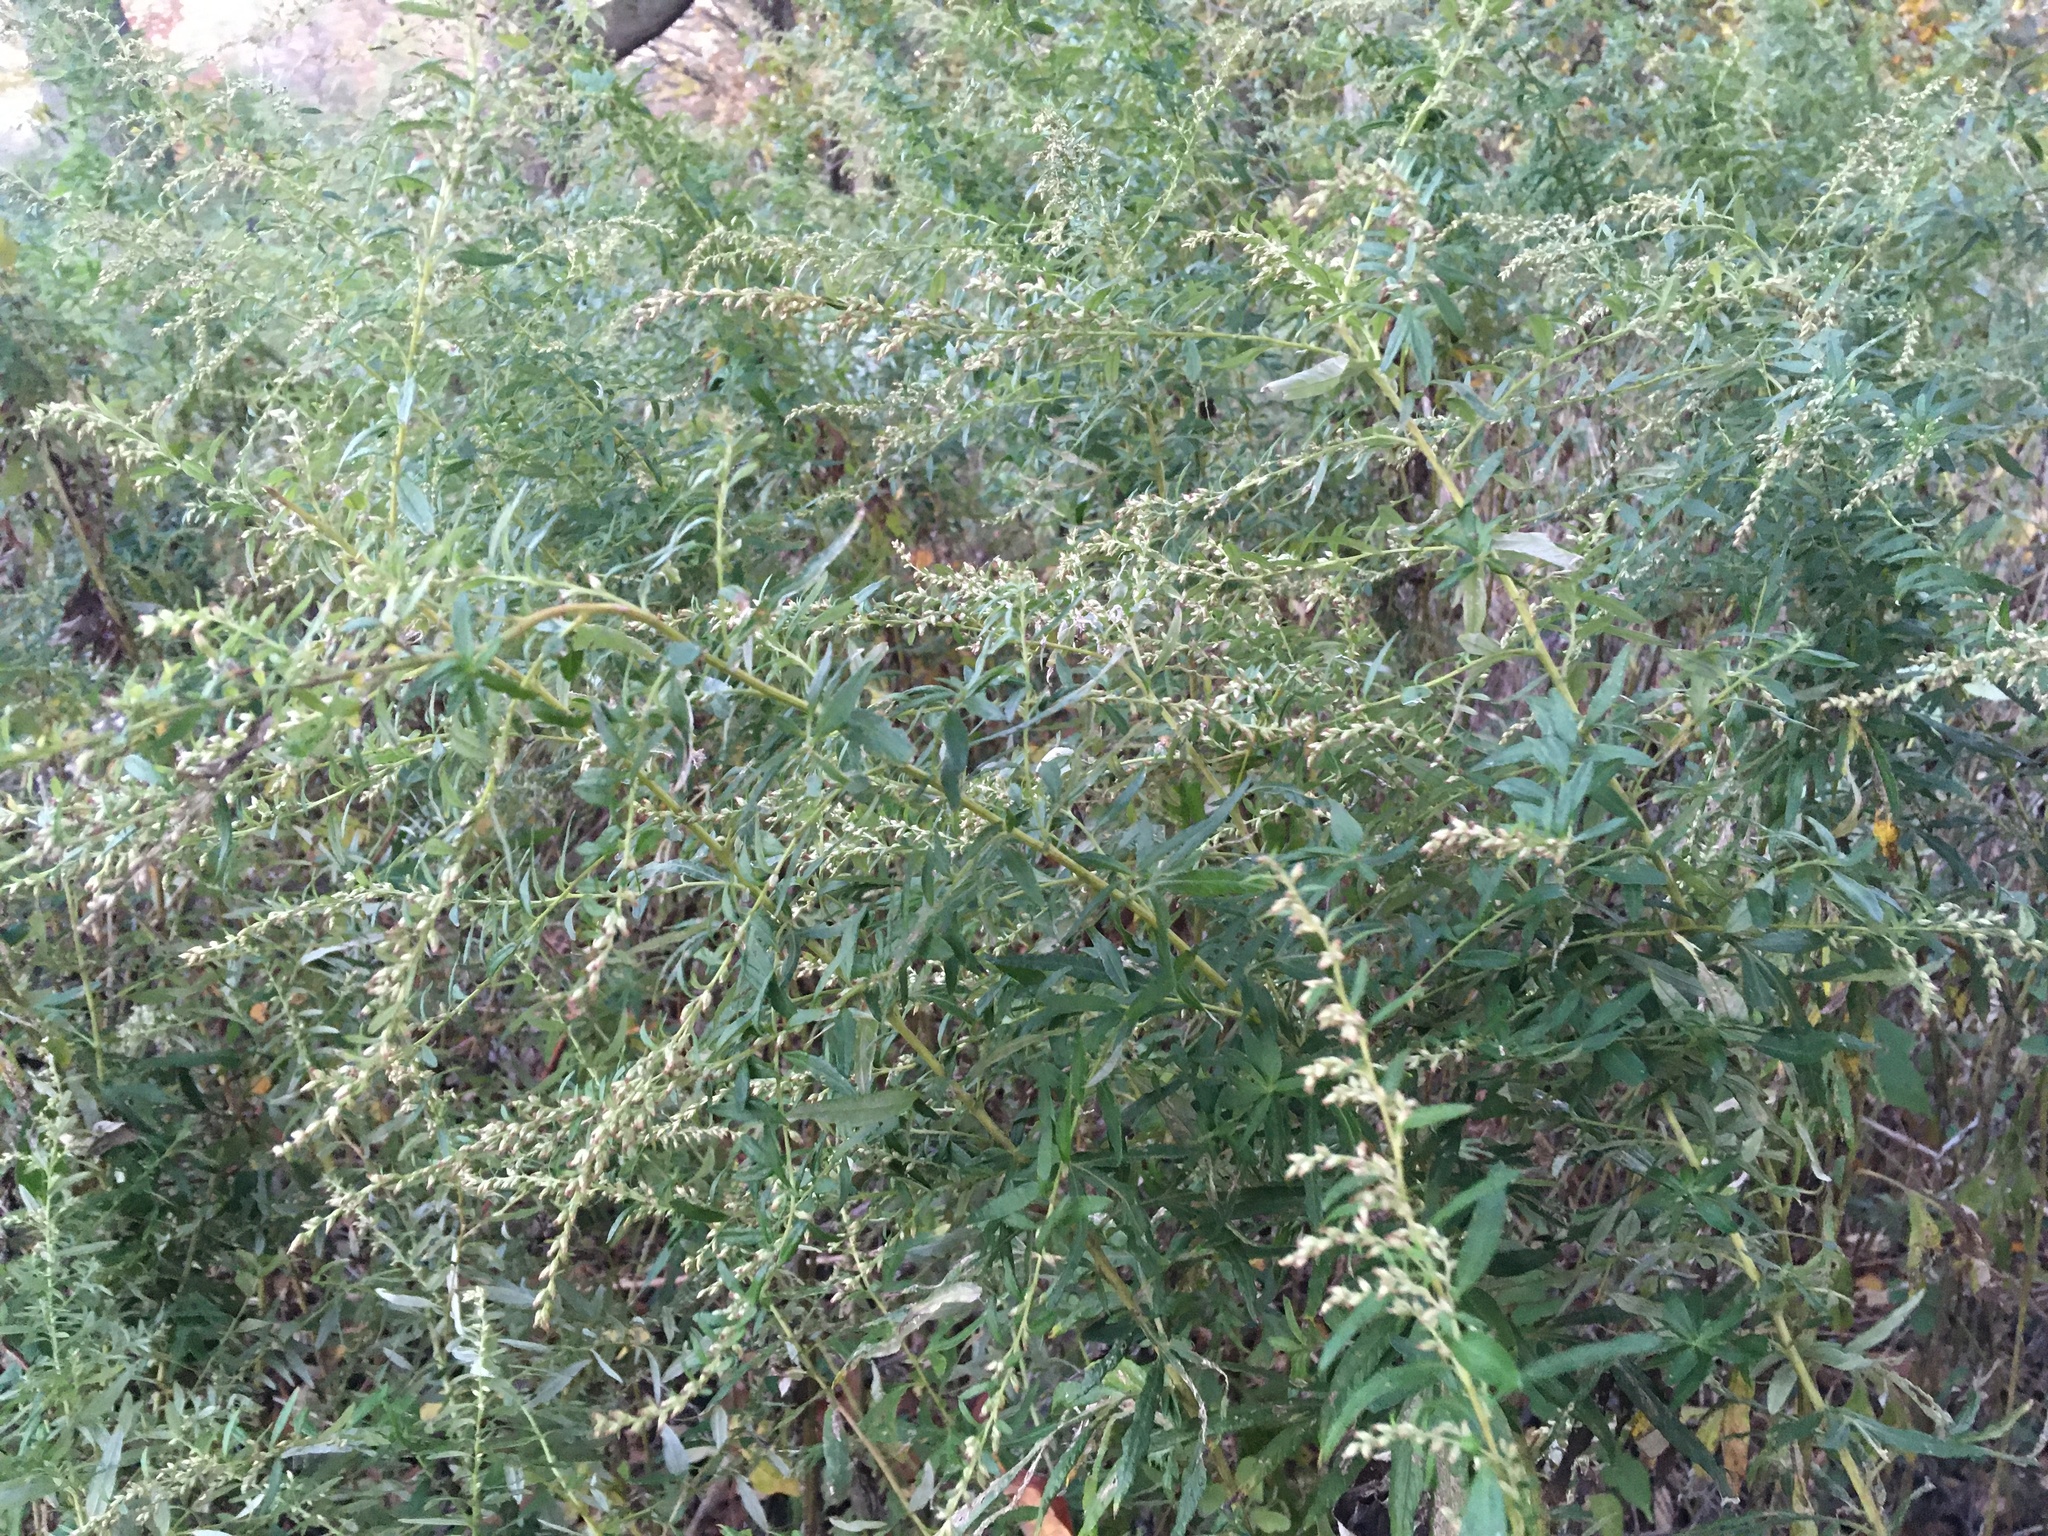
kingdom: Plantae
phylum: Tracheophyta
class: Magnoliopsida
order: Asterales
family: Asteraceae
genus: Artemisia
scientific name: Artemisia vulgaris
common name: Mugwort
